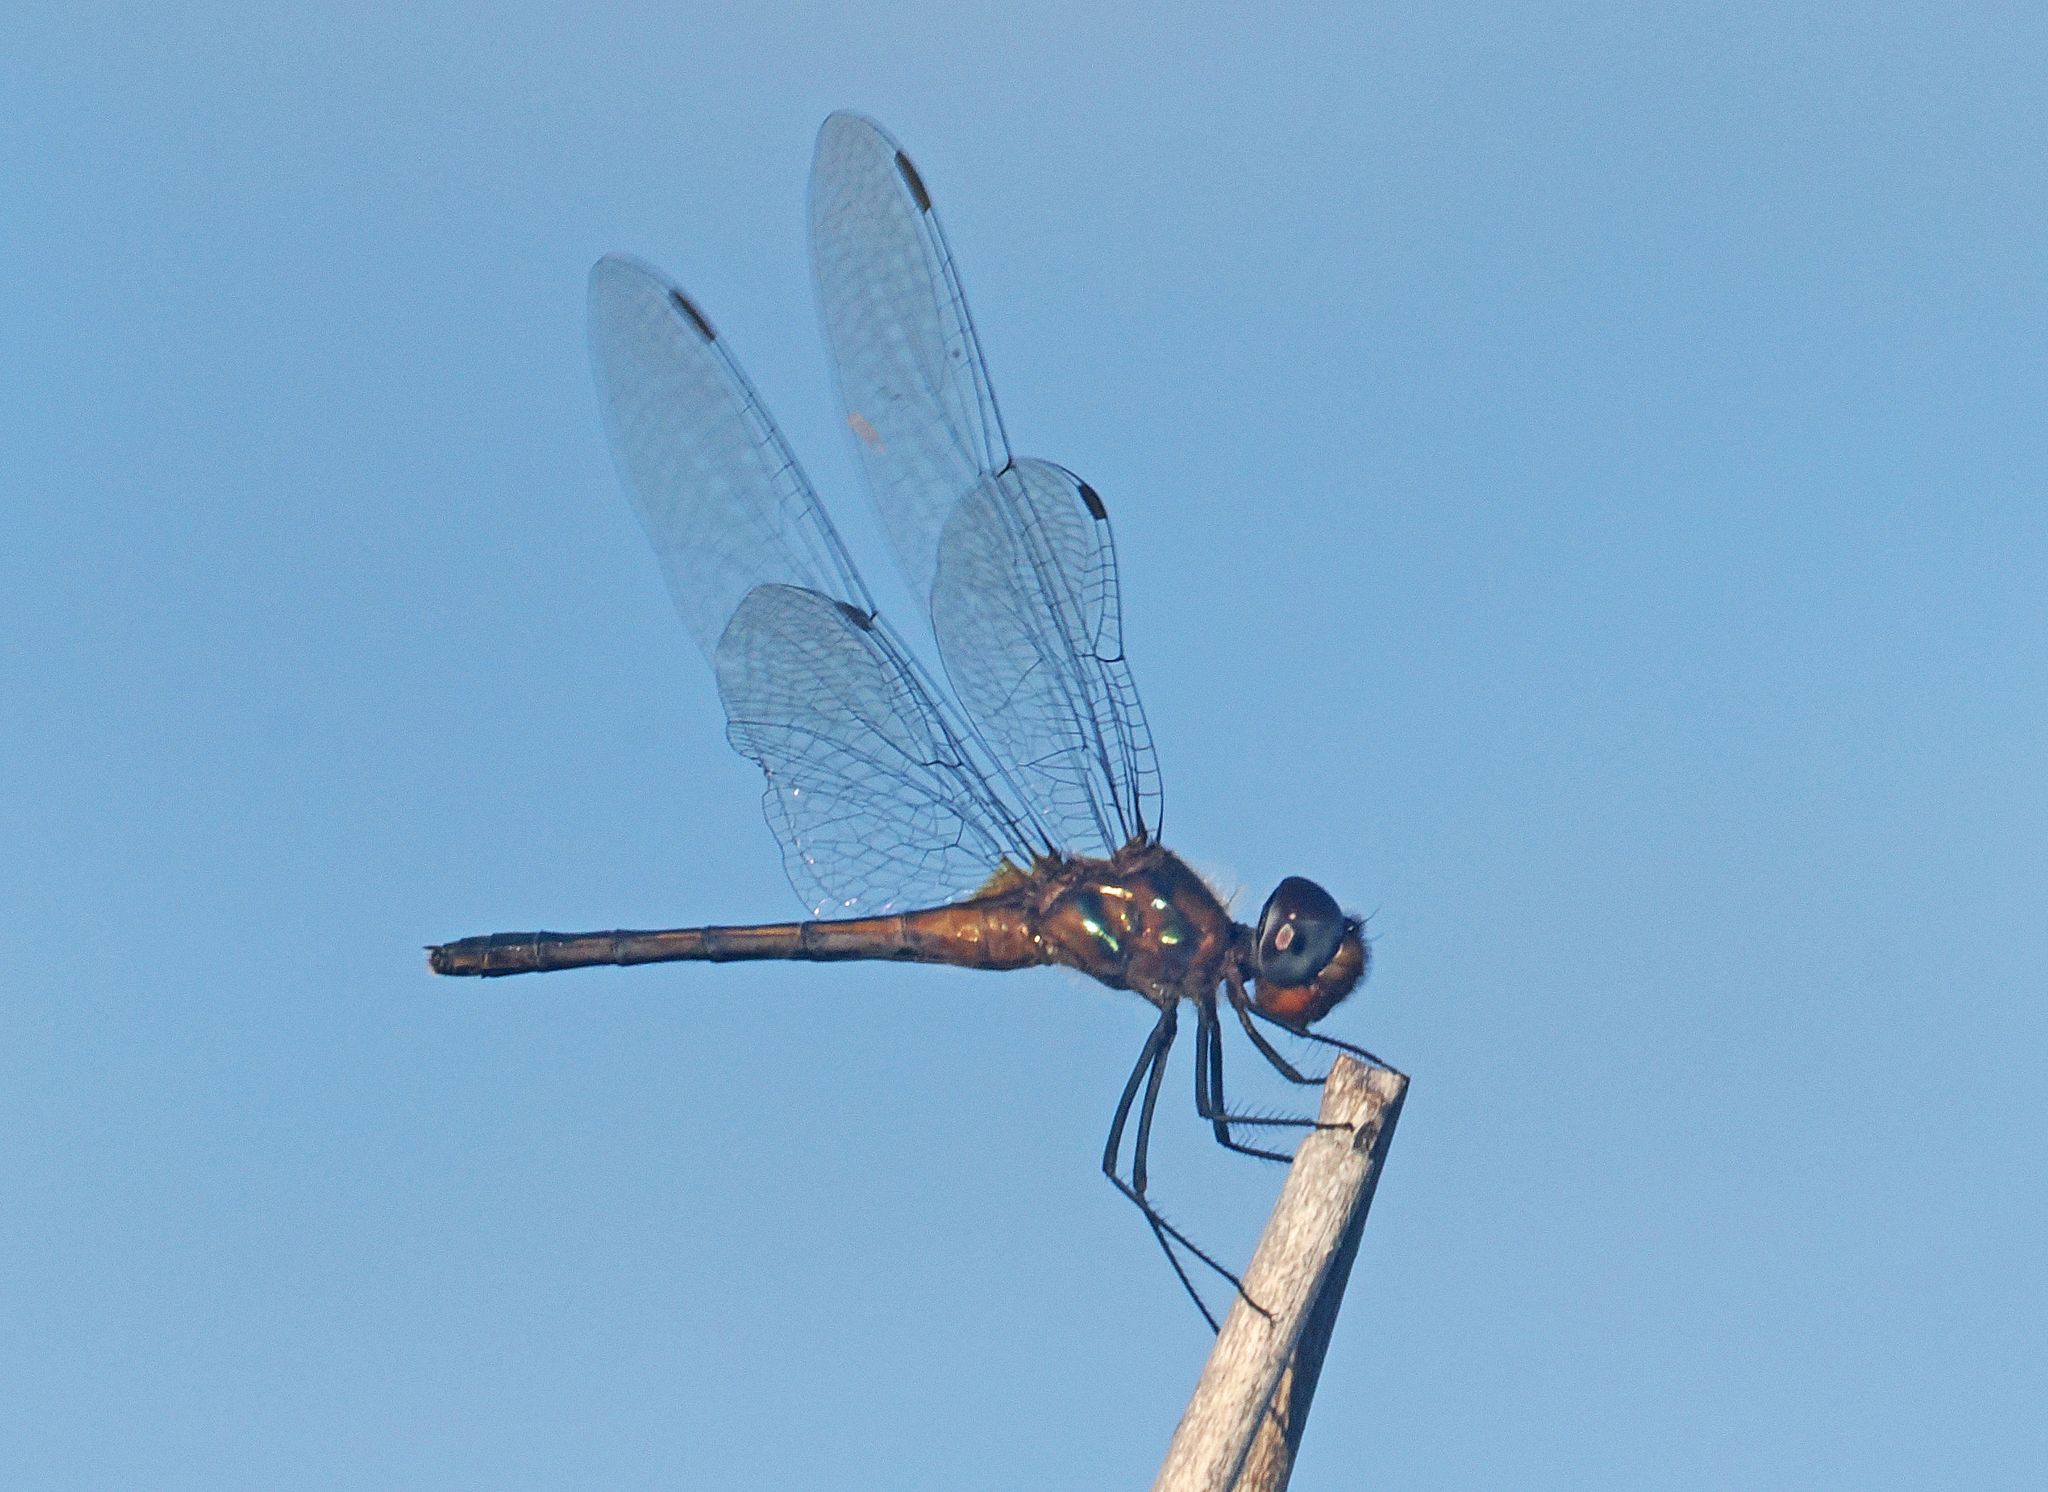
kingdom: Animalia
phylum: Arthropoda
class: Insecta
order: Odonata
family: Libellulidae
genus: Idiataphe
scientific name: Idiataphe cubensis
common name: Metallic pennant
